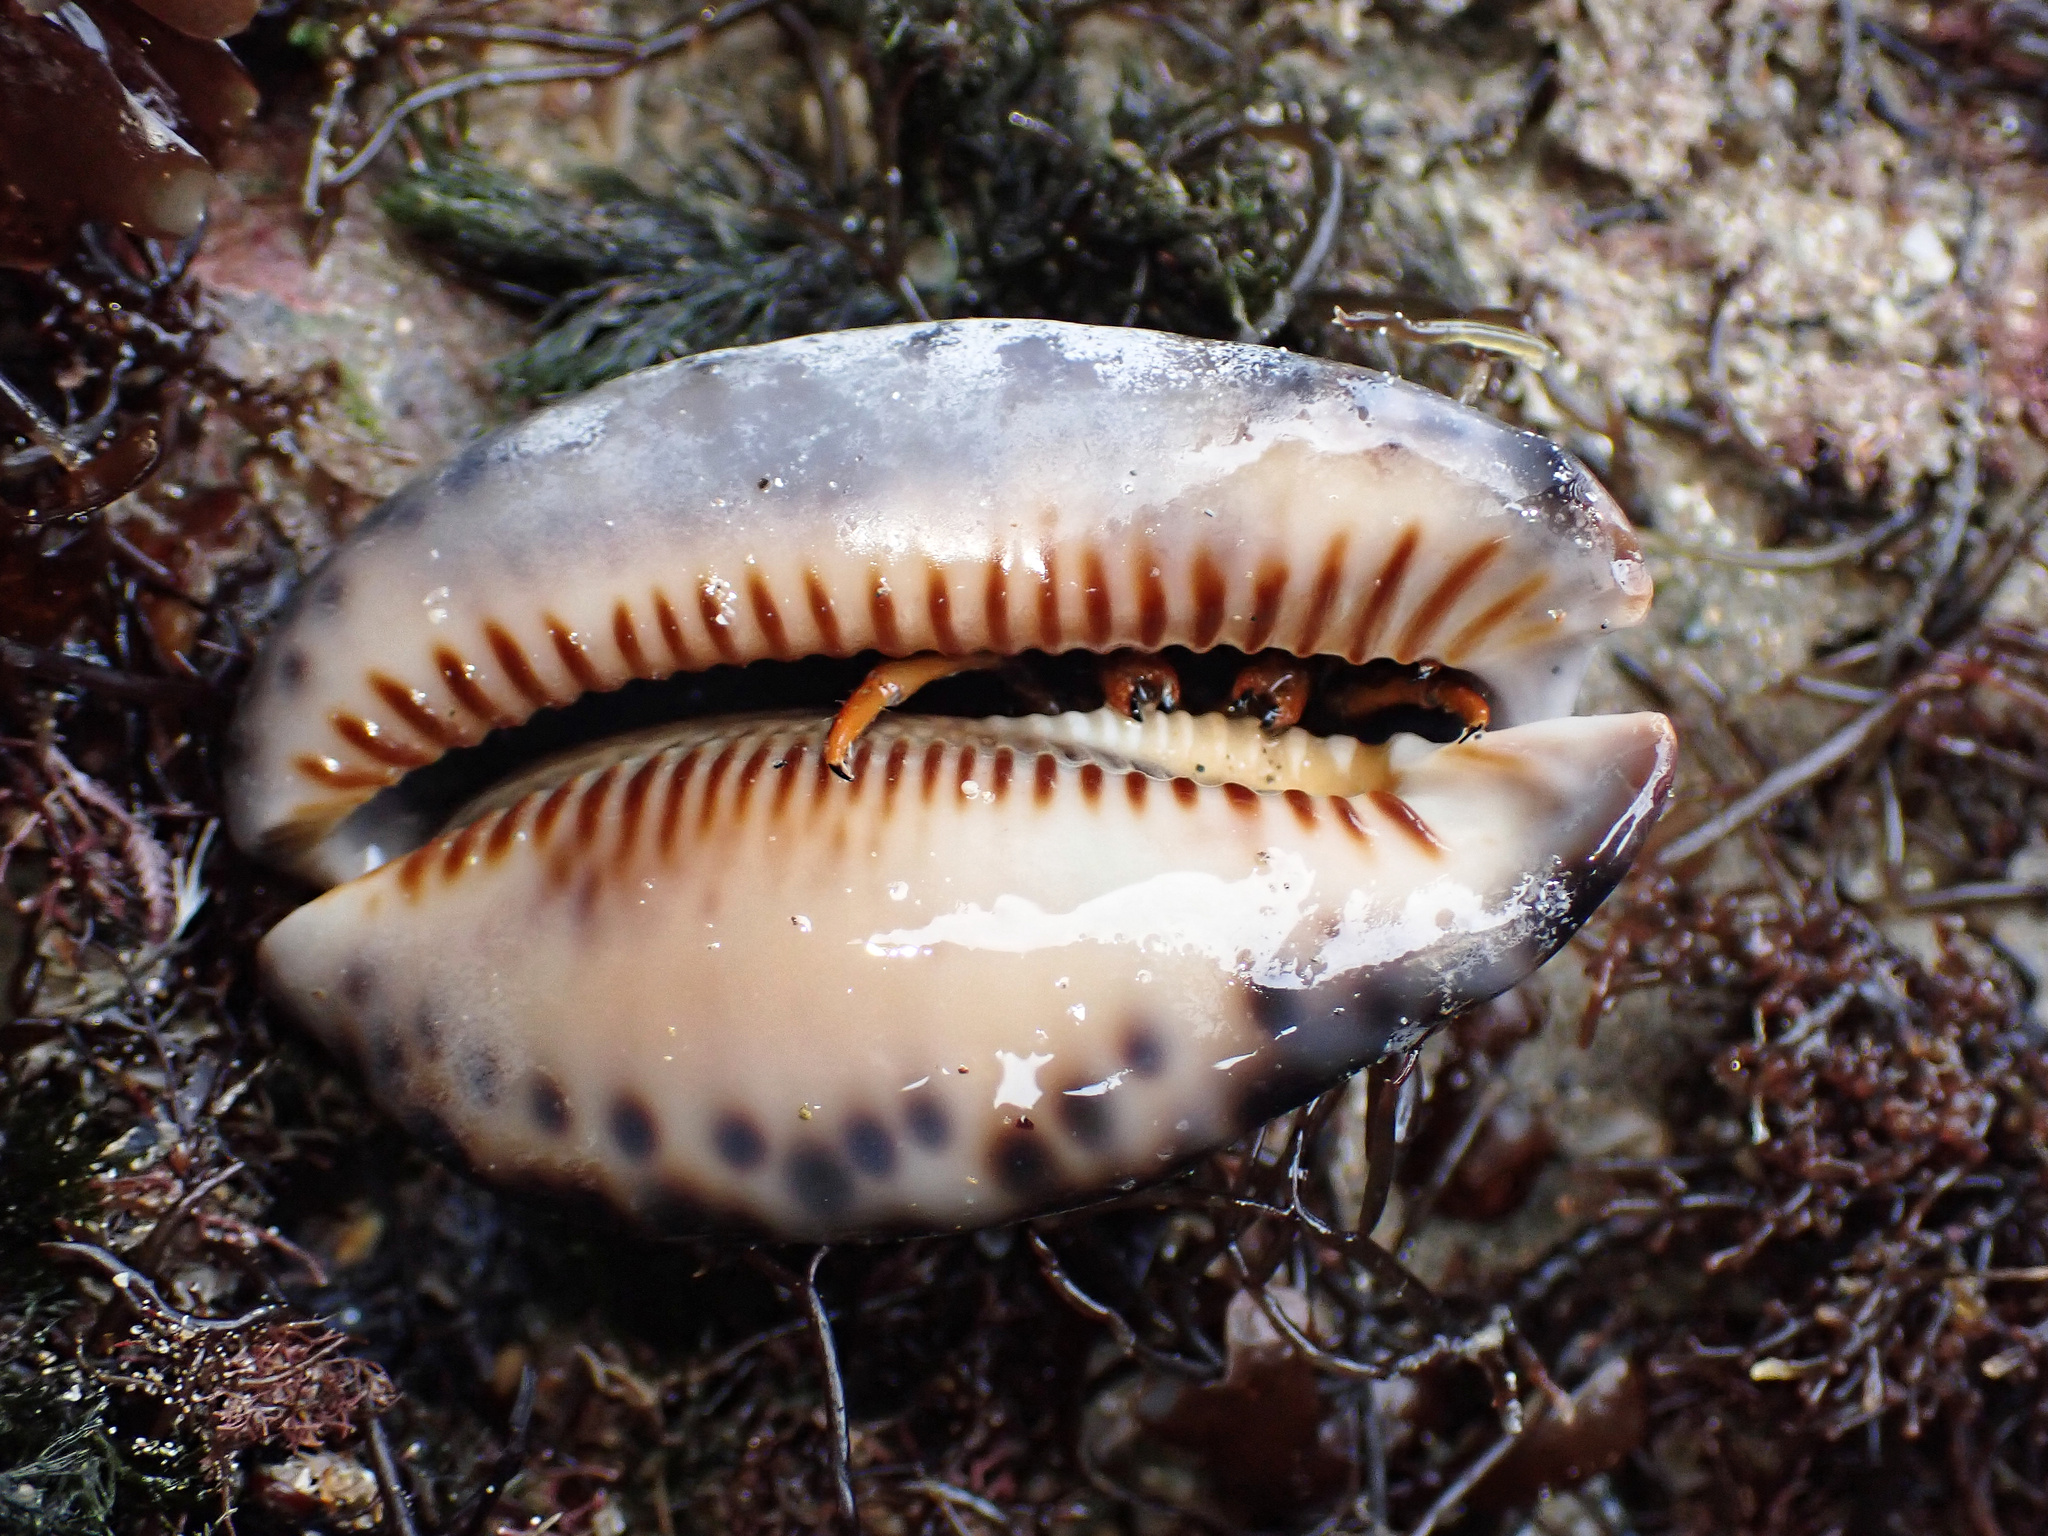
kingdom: Animalia
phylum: Mollusca
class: Gastropoda
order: Littorinimorpha
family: Cypraeidae
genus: Mauritia
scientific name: Mauritia arabica
